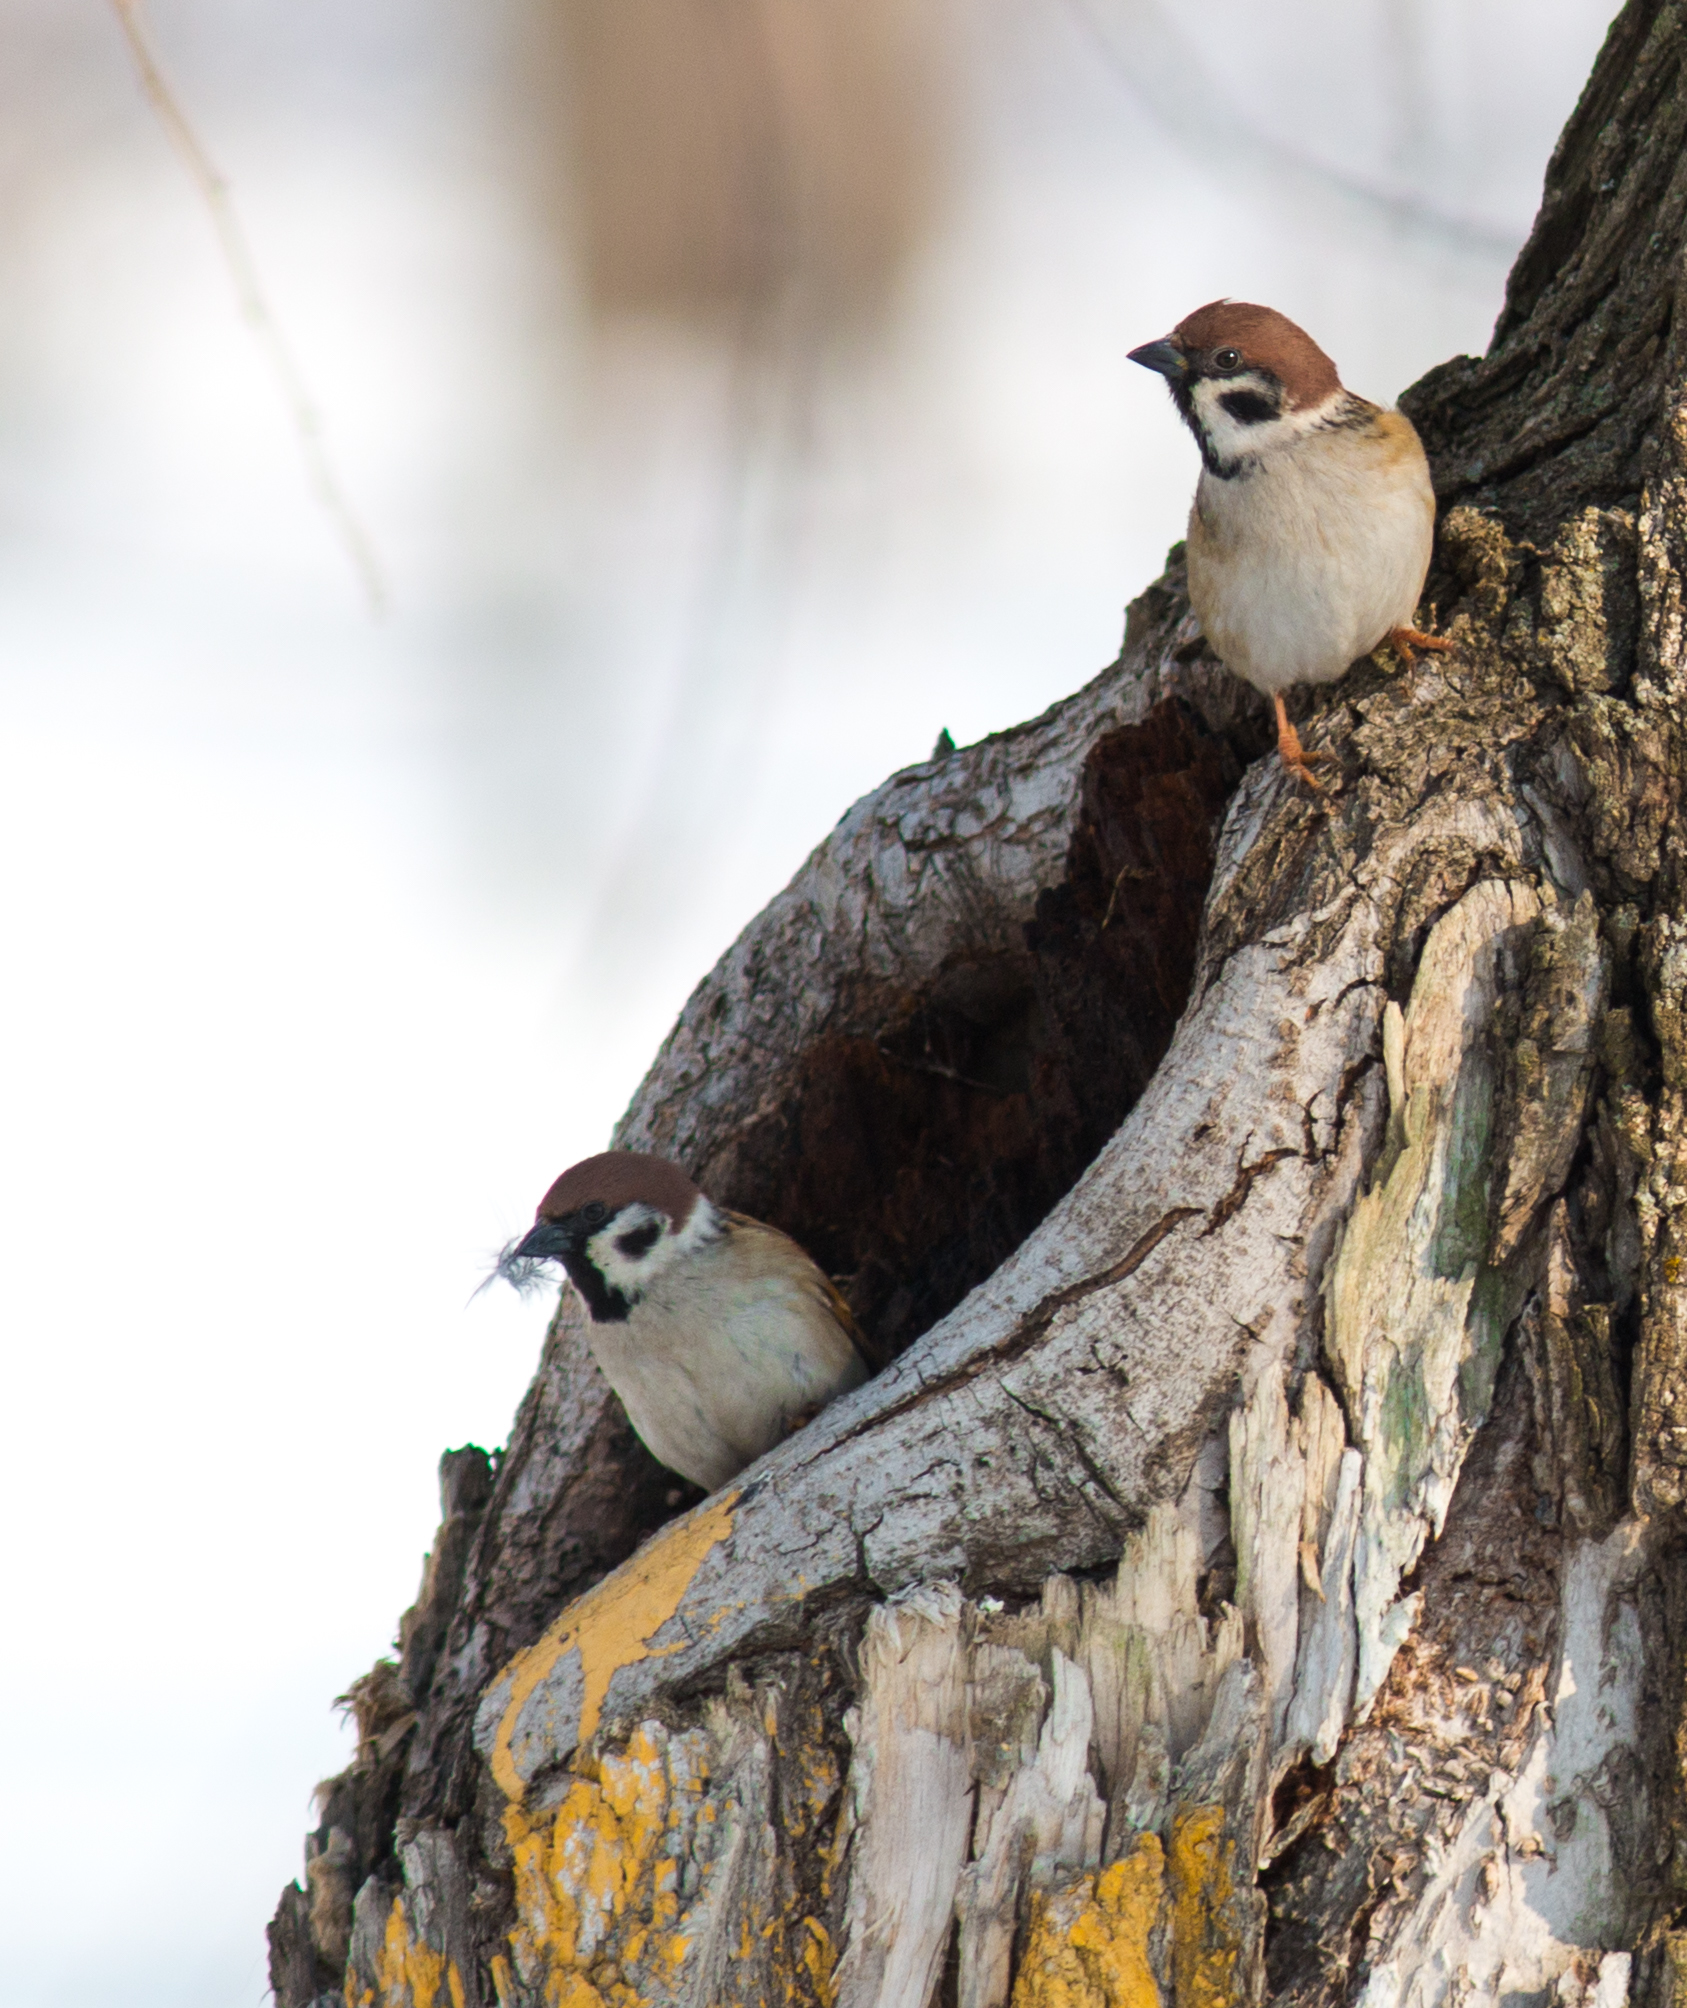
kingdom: Animalia
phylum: Chordata
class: Aves
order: Passeriformes
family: Passeridae
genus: Passer
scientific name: Passer montanus
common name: Eurasian tree sparrow
